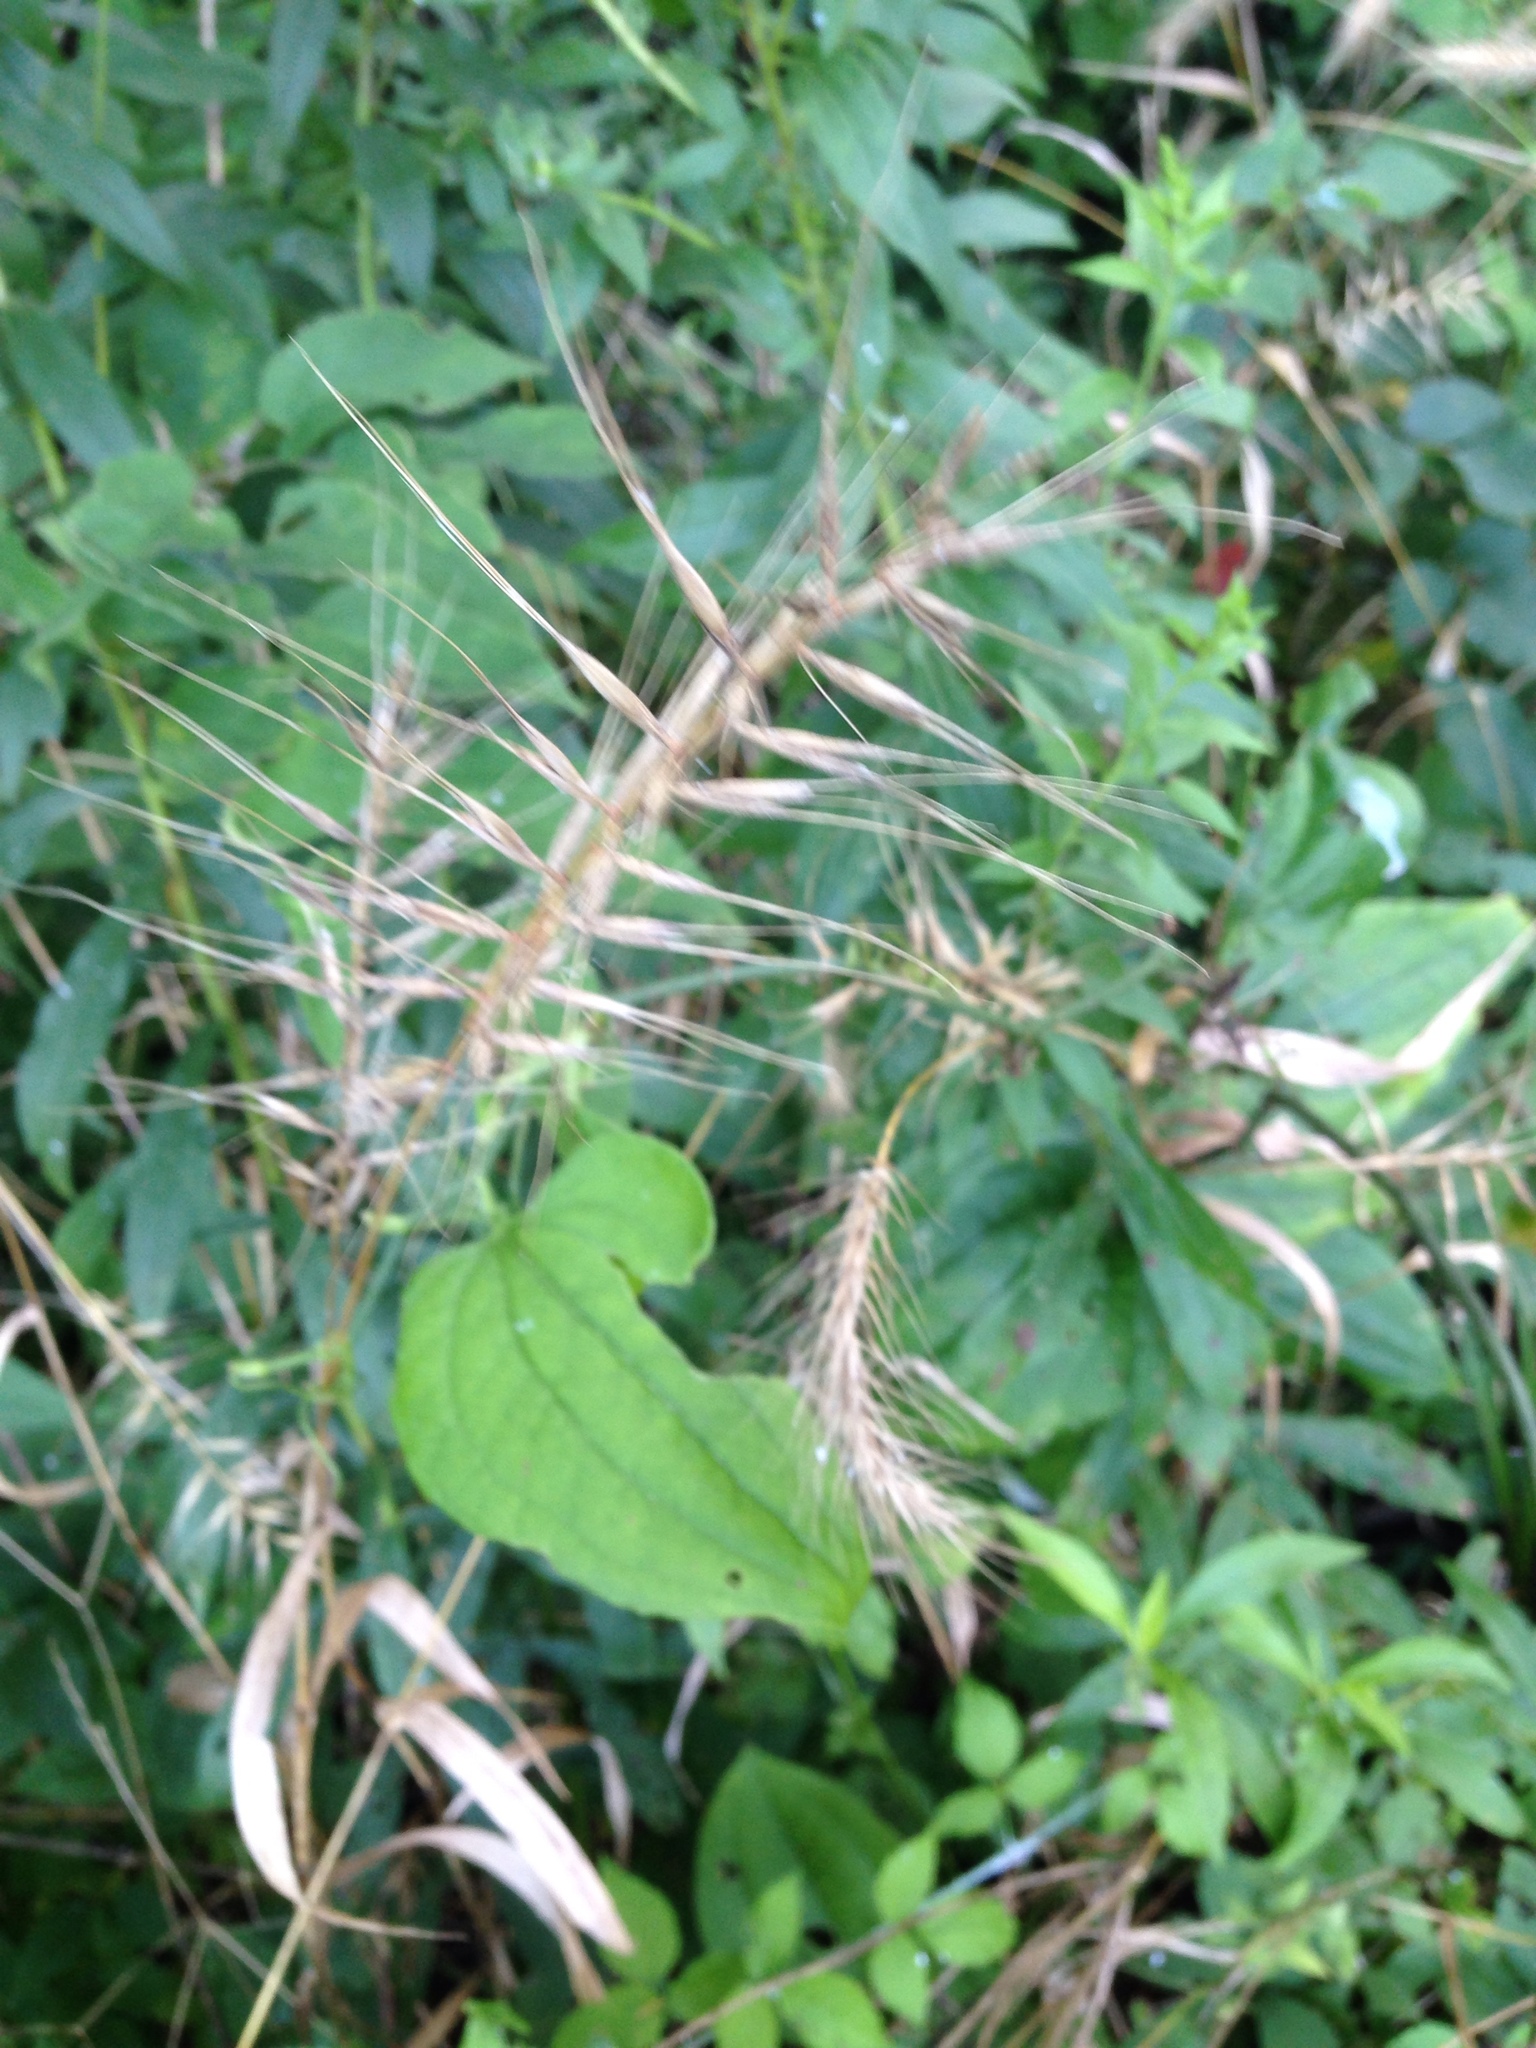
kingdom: Plantae
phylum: Tracheophyta
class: Liliopsida
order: Poales
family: Poaceae
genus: Elymus
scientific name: Elymus hystrix
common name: Bottlebrush grass
